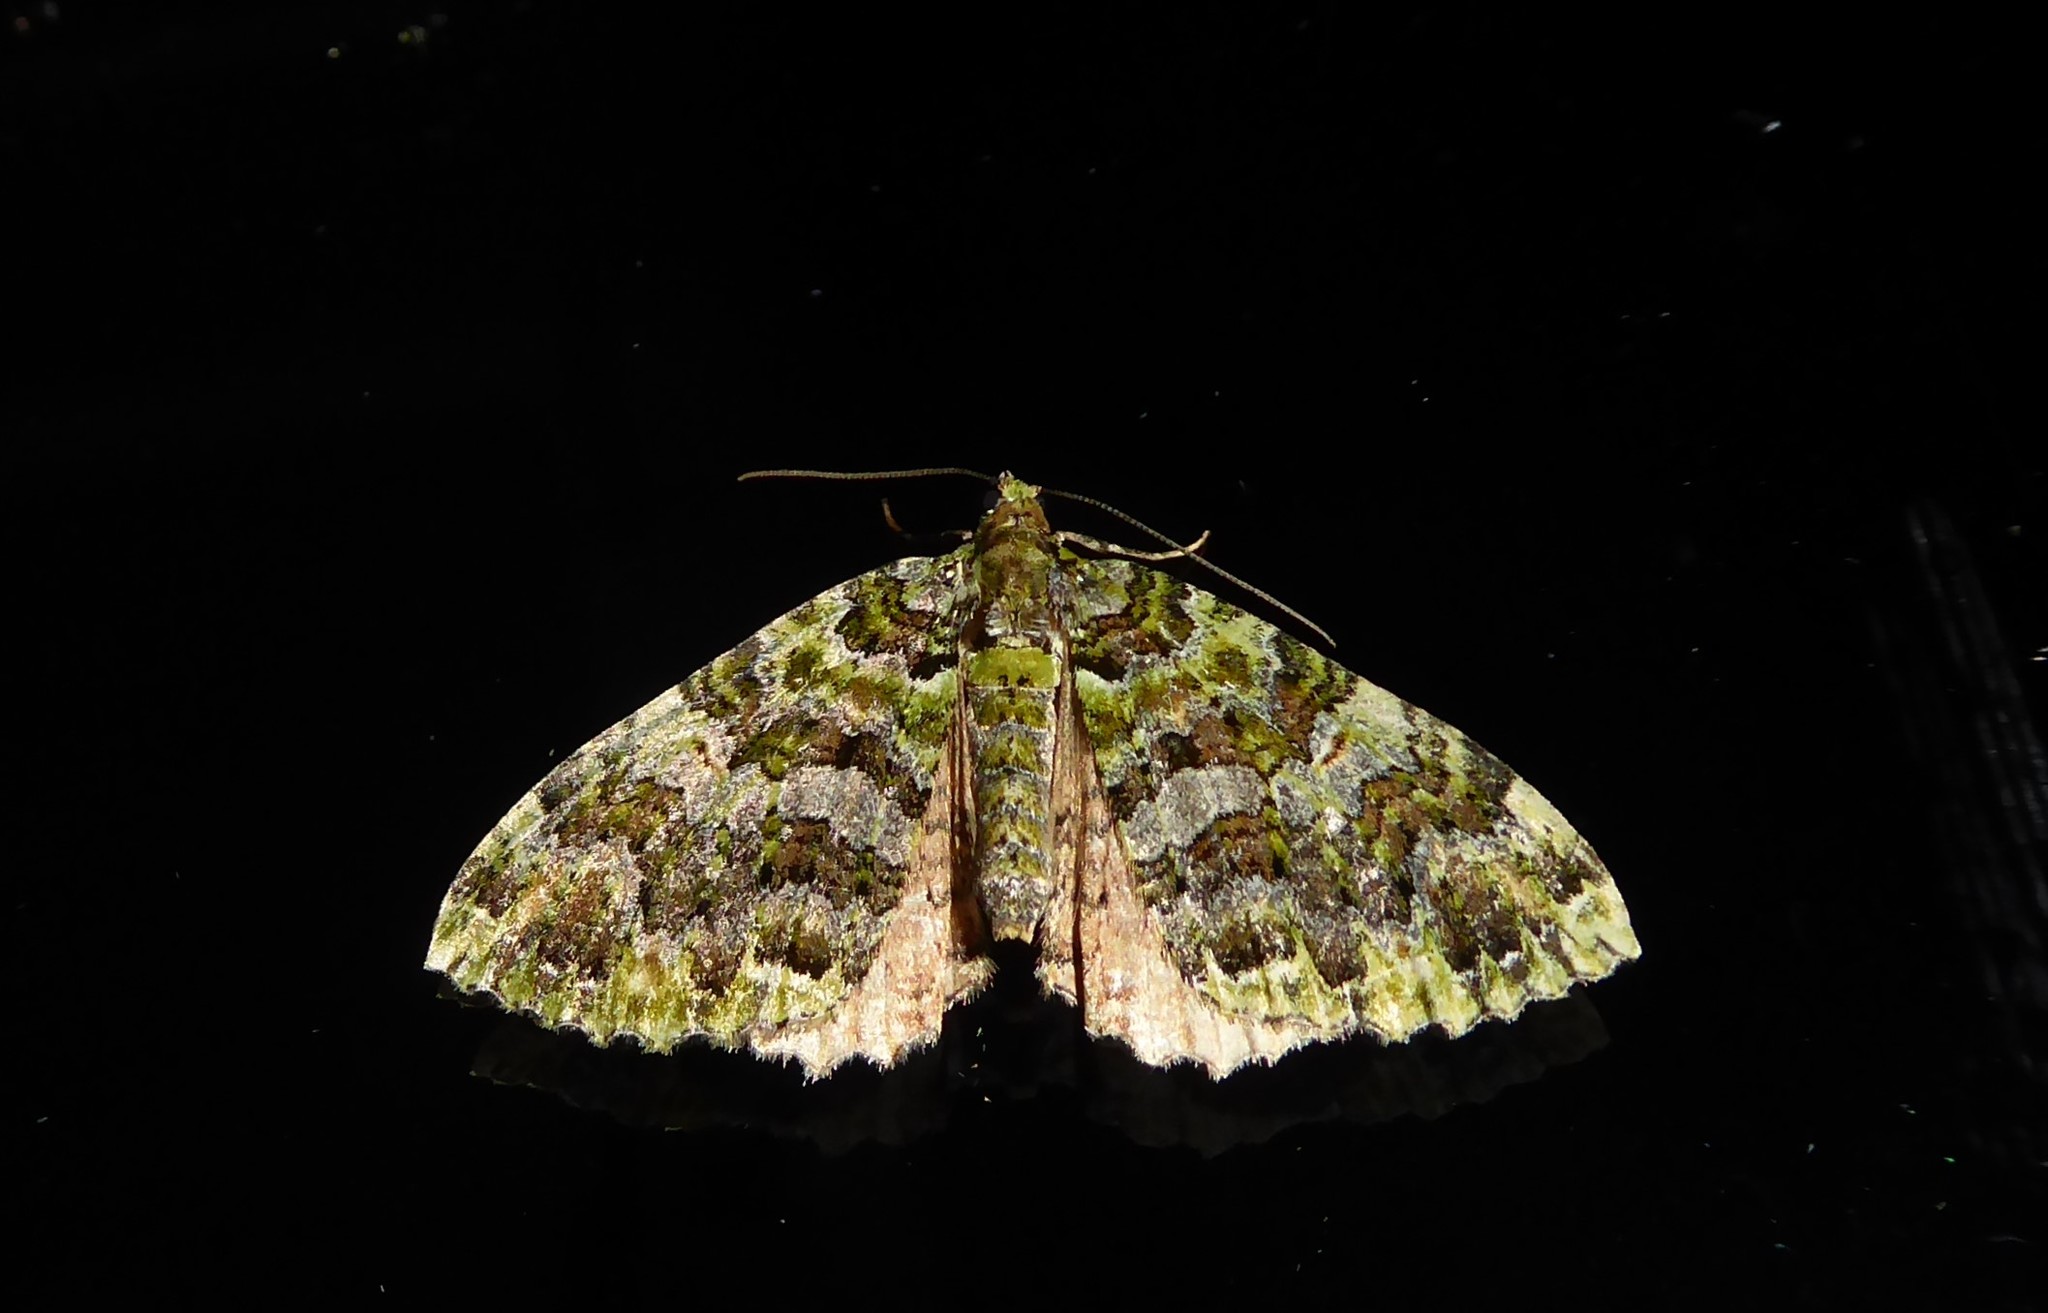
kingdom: Animalia
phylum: Arthropoda
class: Insecta
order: Lepidoptera
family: Geometridae
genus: Austrocidaria
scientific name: Austrocidaria similata
